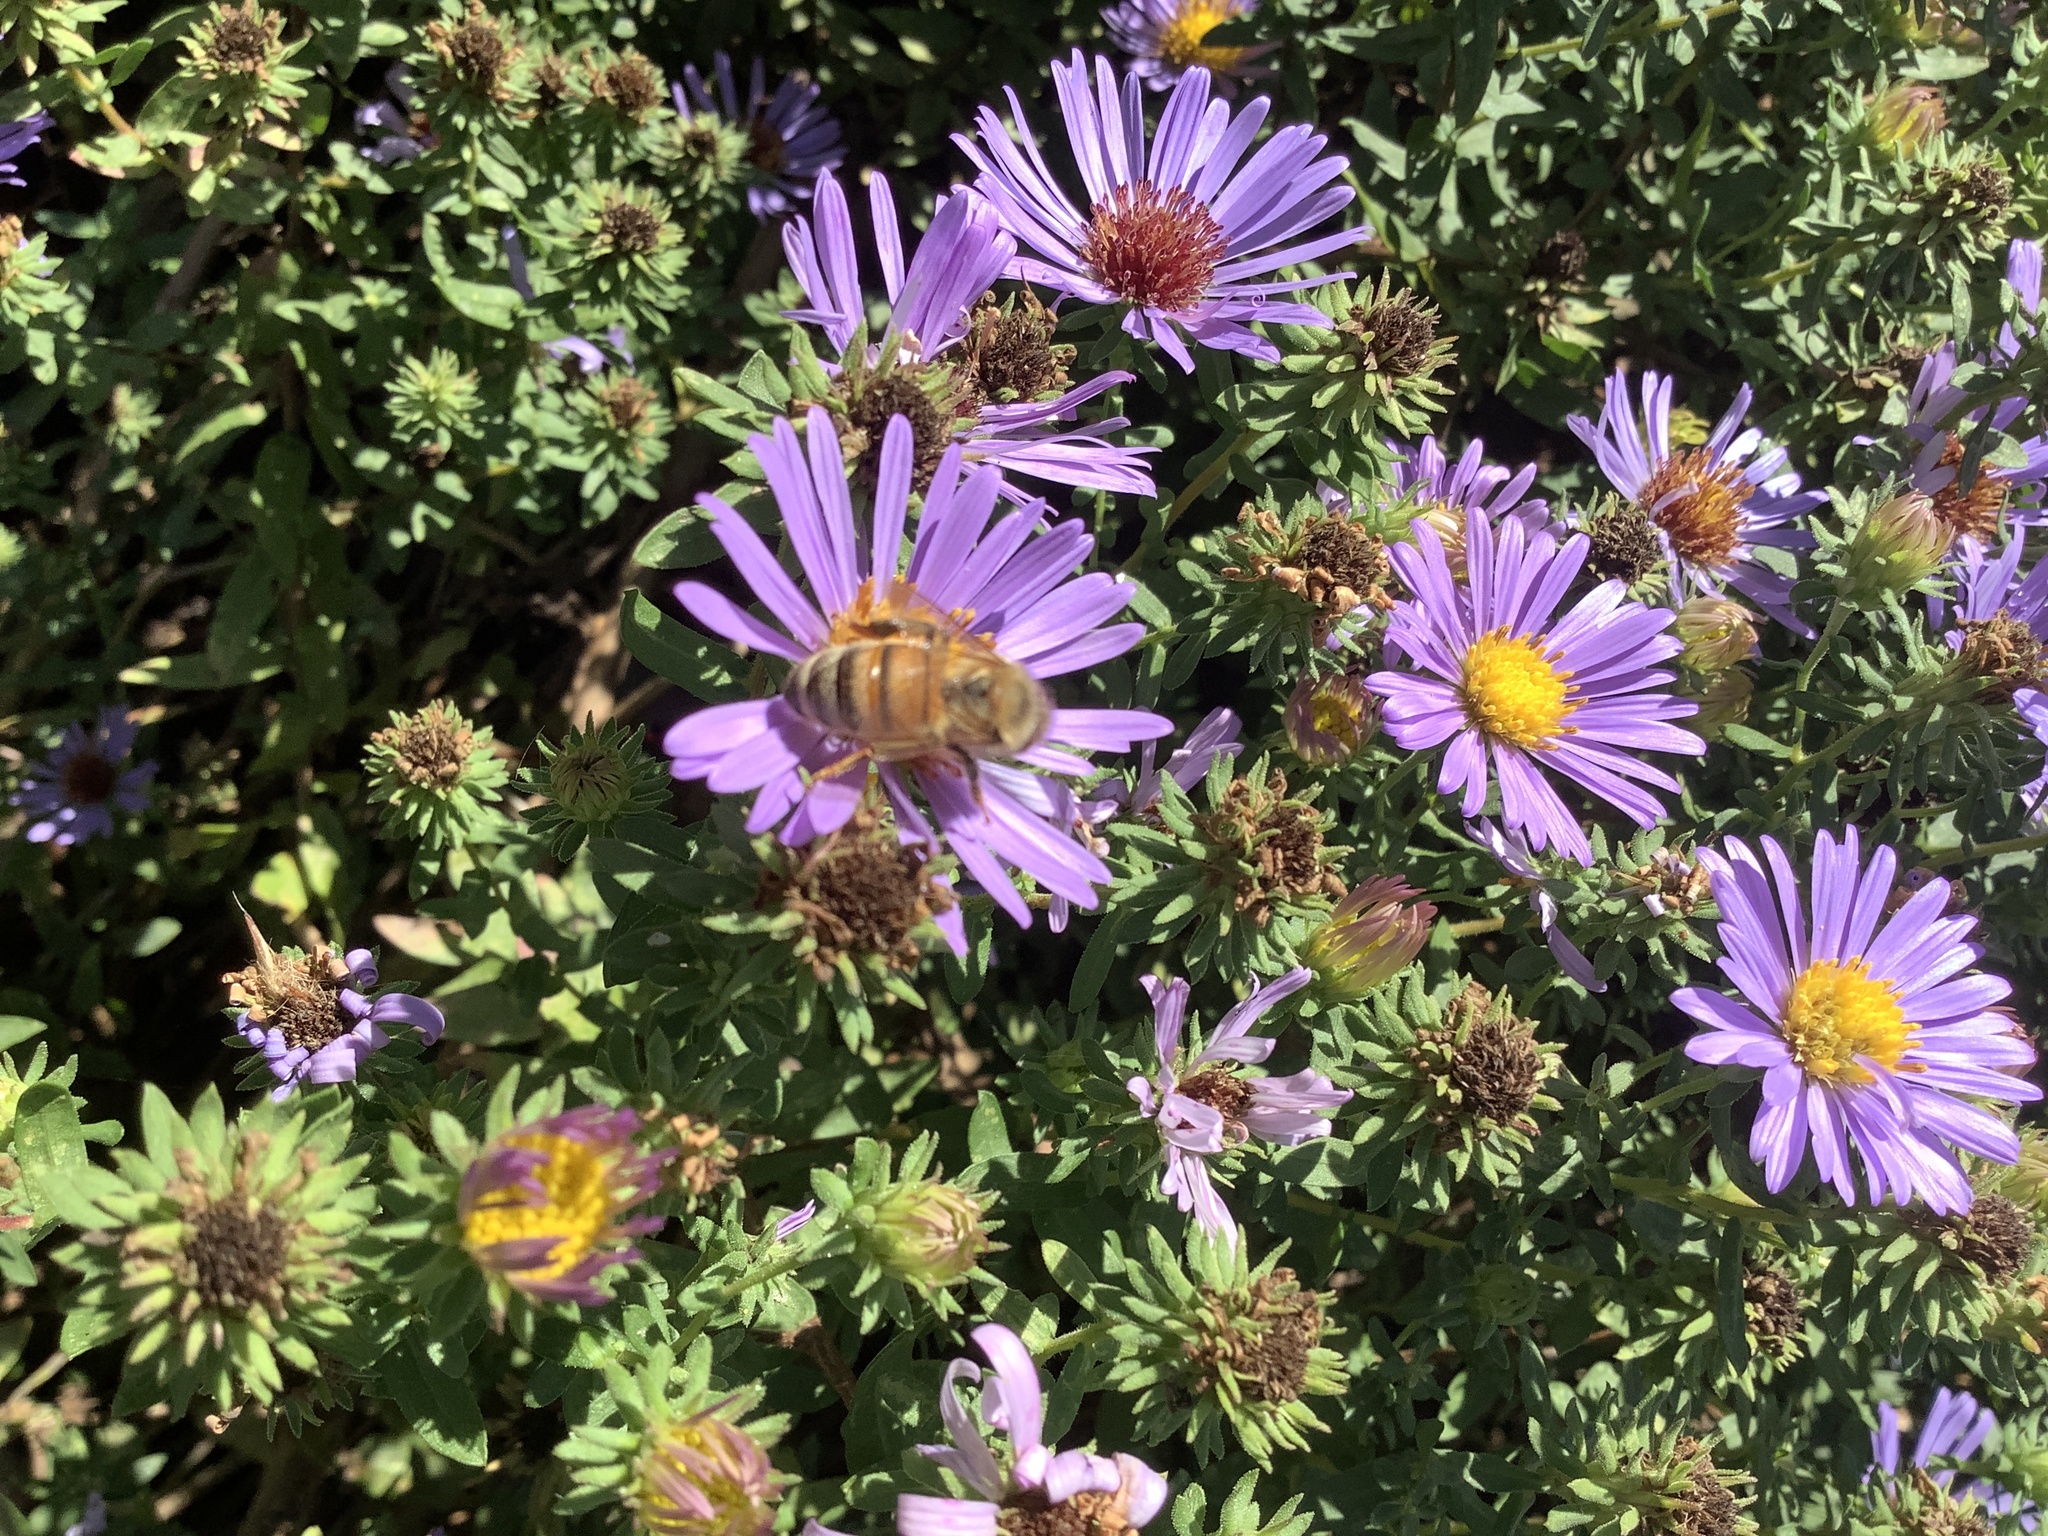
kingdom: Animalia
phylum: Arthropoda
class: Insecta
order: Hymenoptera
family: Apidae
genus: Apis
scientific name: Apis mellifera
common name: Honey bee
